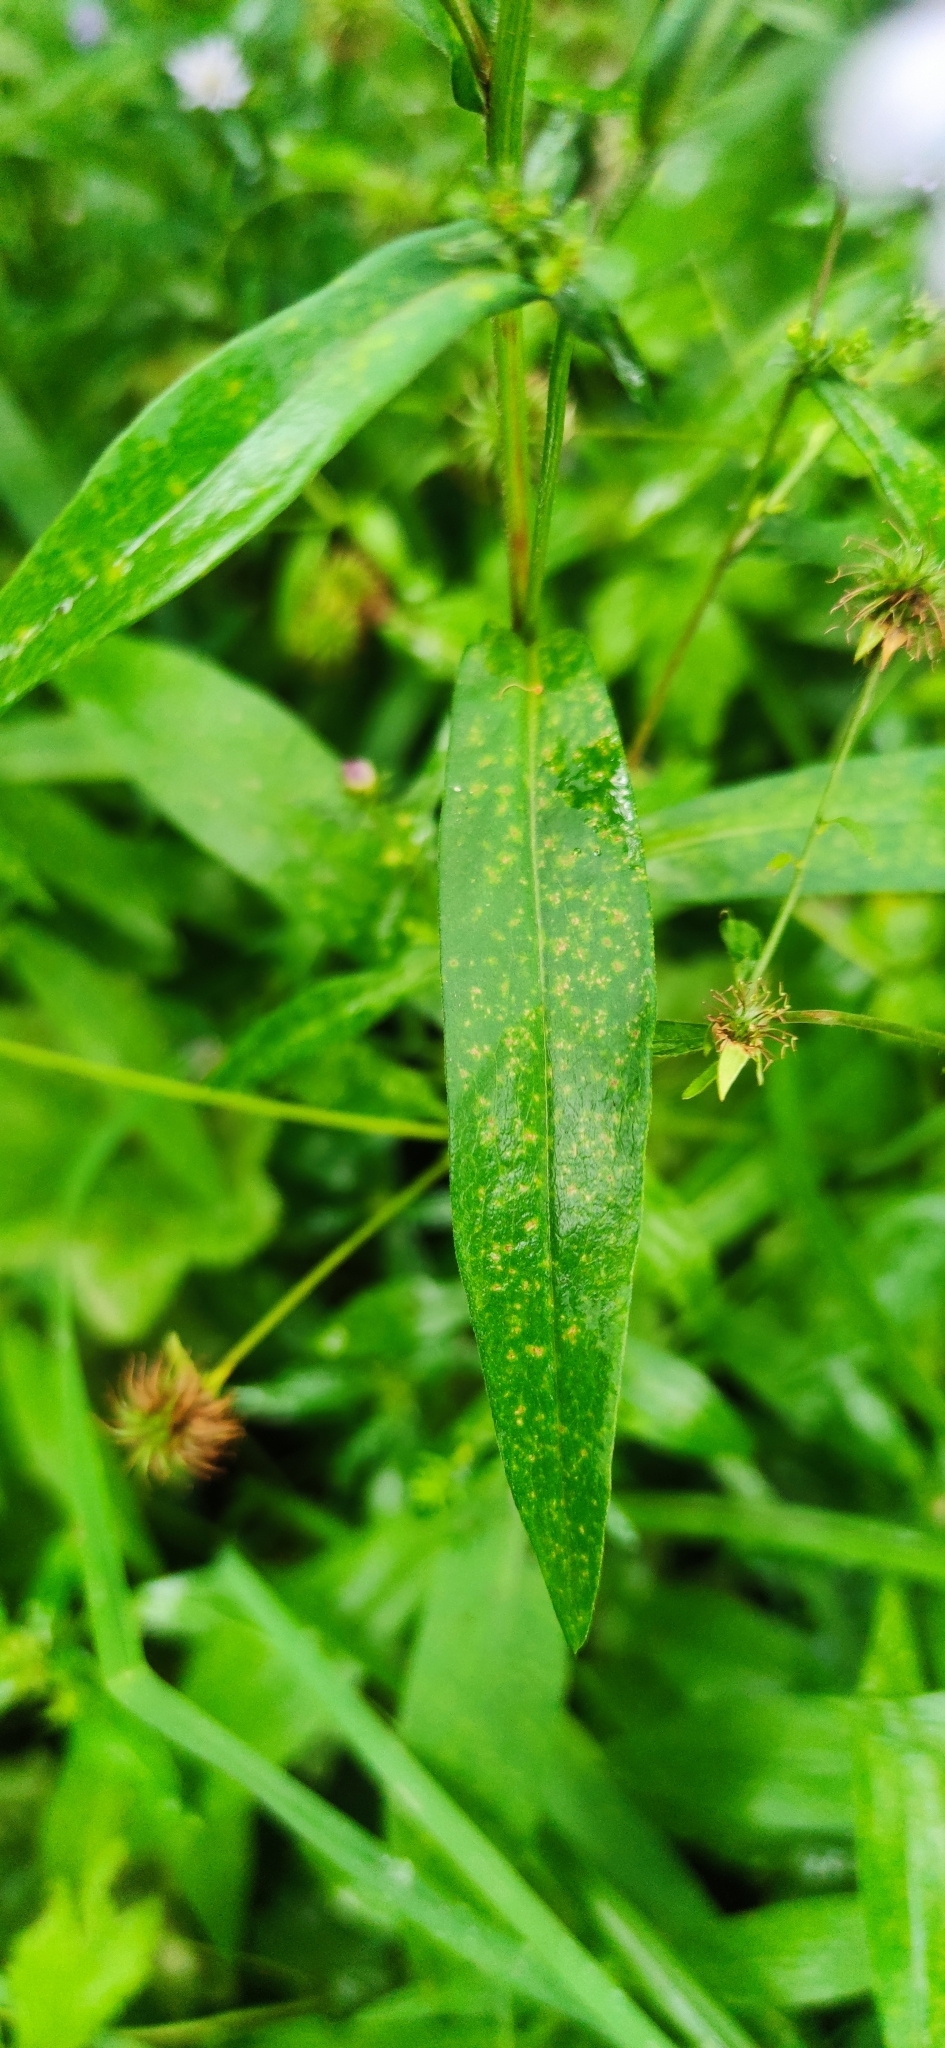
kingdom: Plantae
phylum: Tracheophyta
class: Magnoliopsida
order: Asterales
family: Asteraceae
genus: Symphyotrichum
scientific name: Symphyotrichum novi-belgii
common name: Michaelmas daisy
